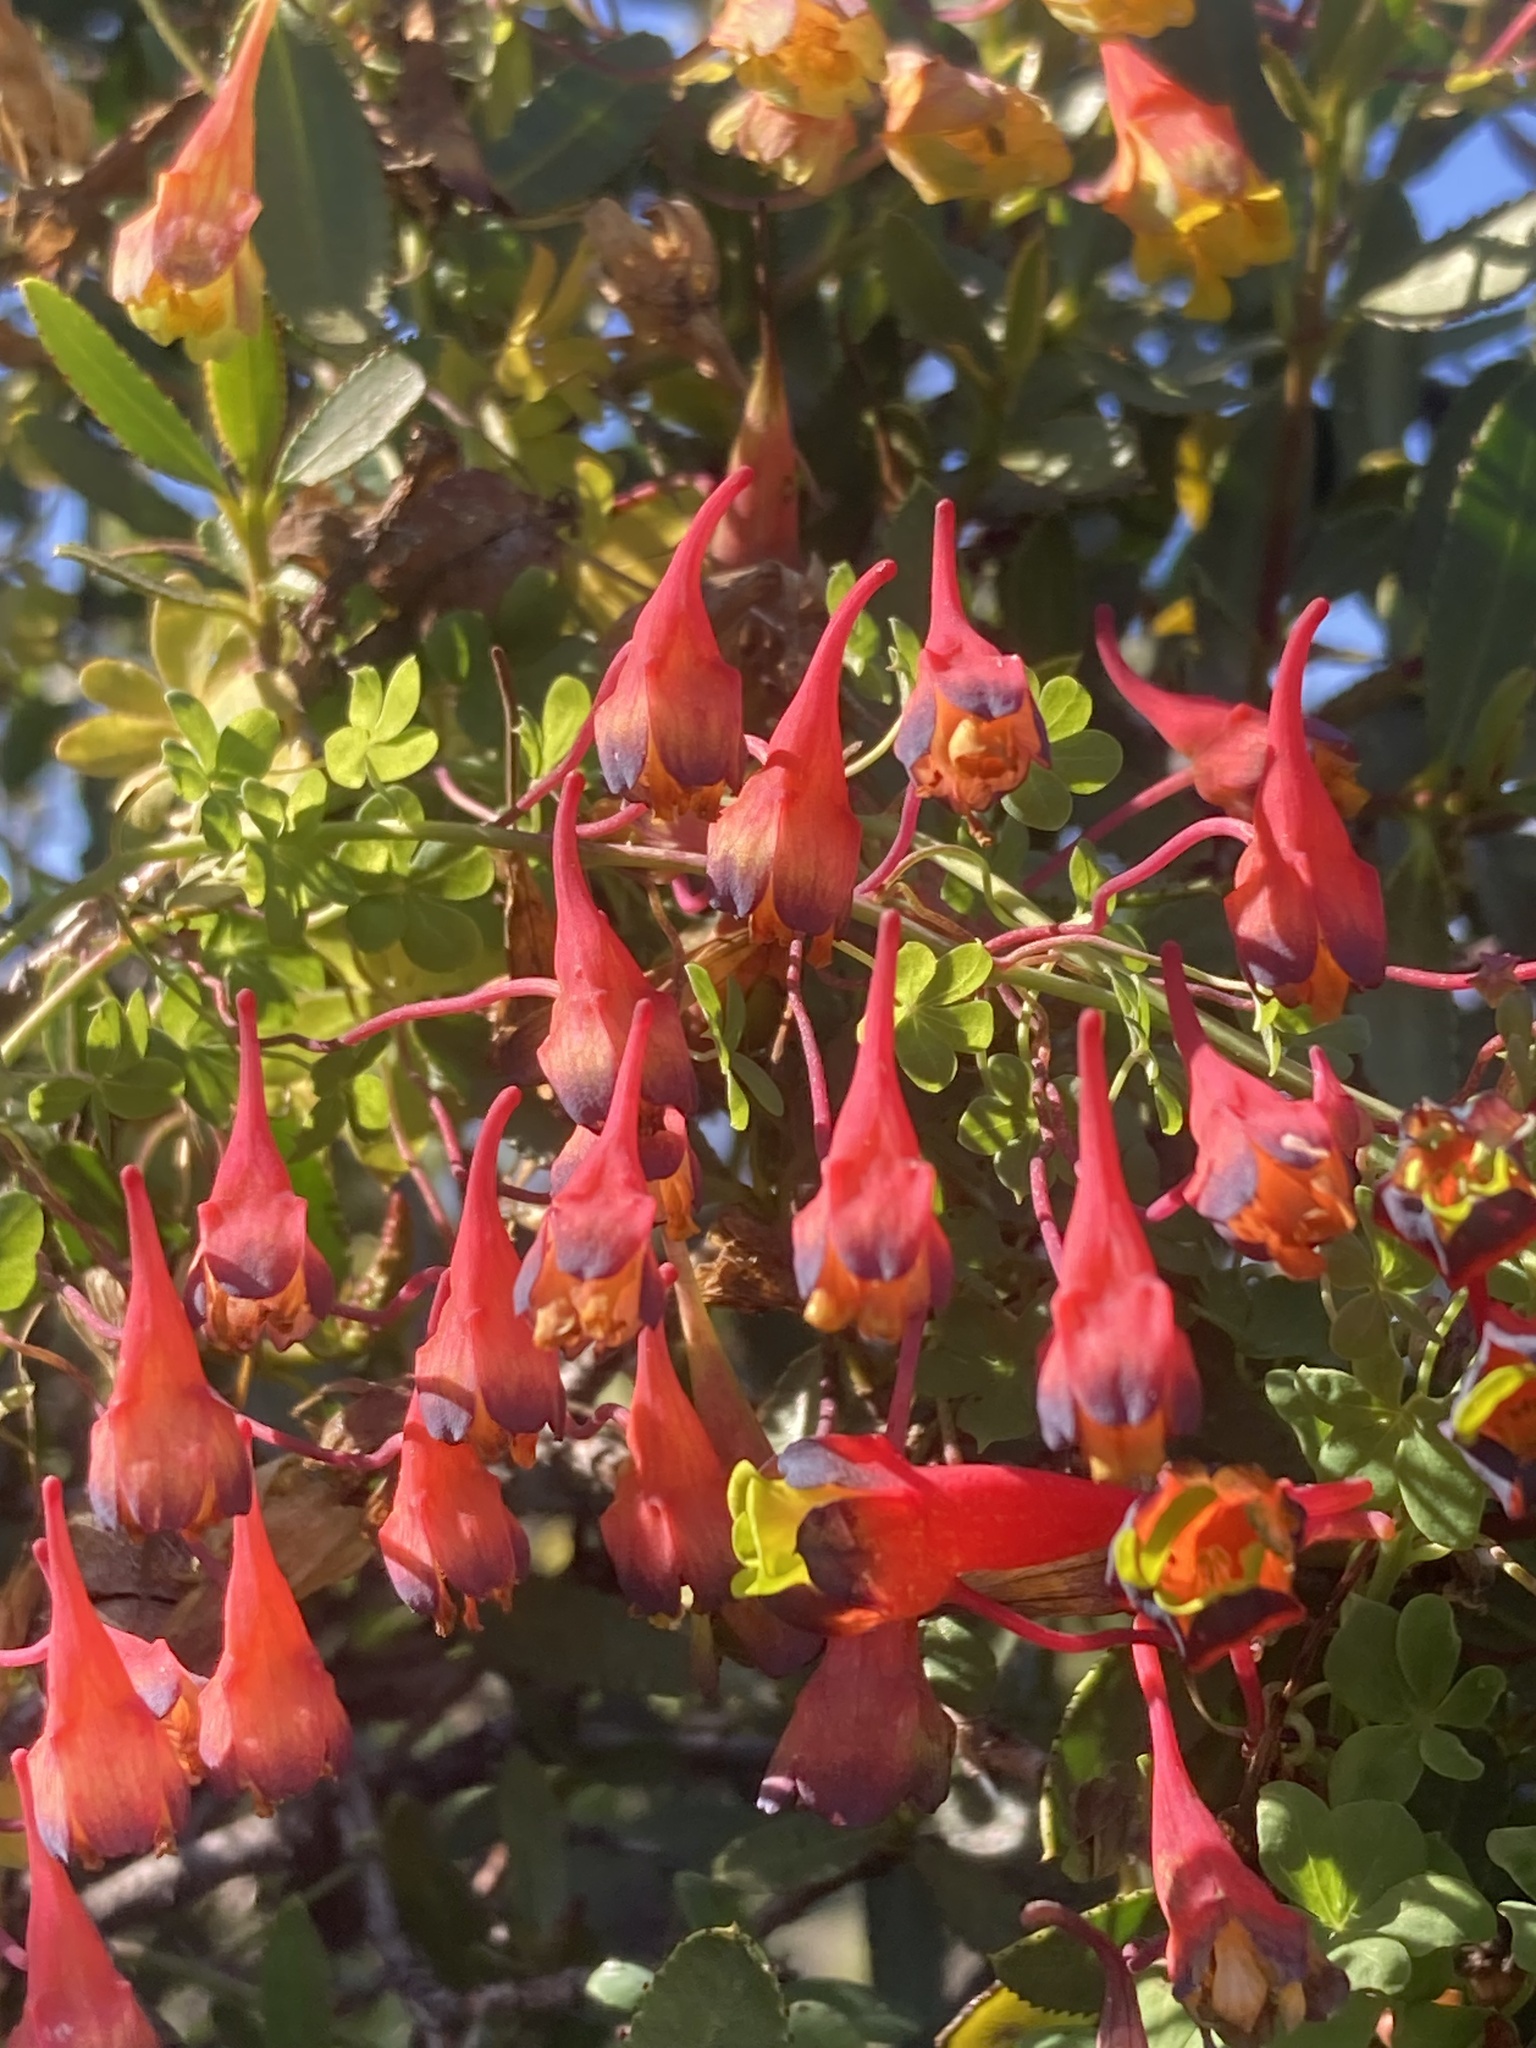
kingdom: Plantae
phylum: Tracheophyta
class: Magnoliopsida
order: Brassicales
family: Tropaeolaceae
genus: Tropaeolum
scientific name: Tropaeolum tricolor
